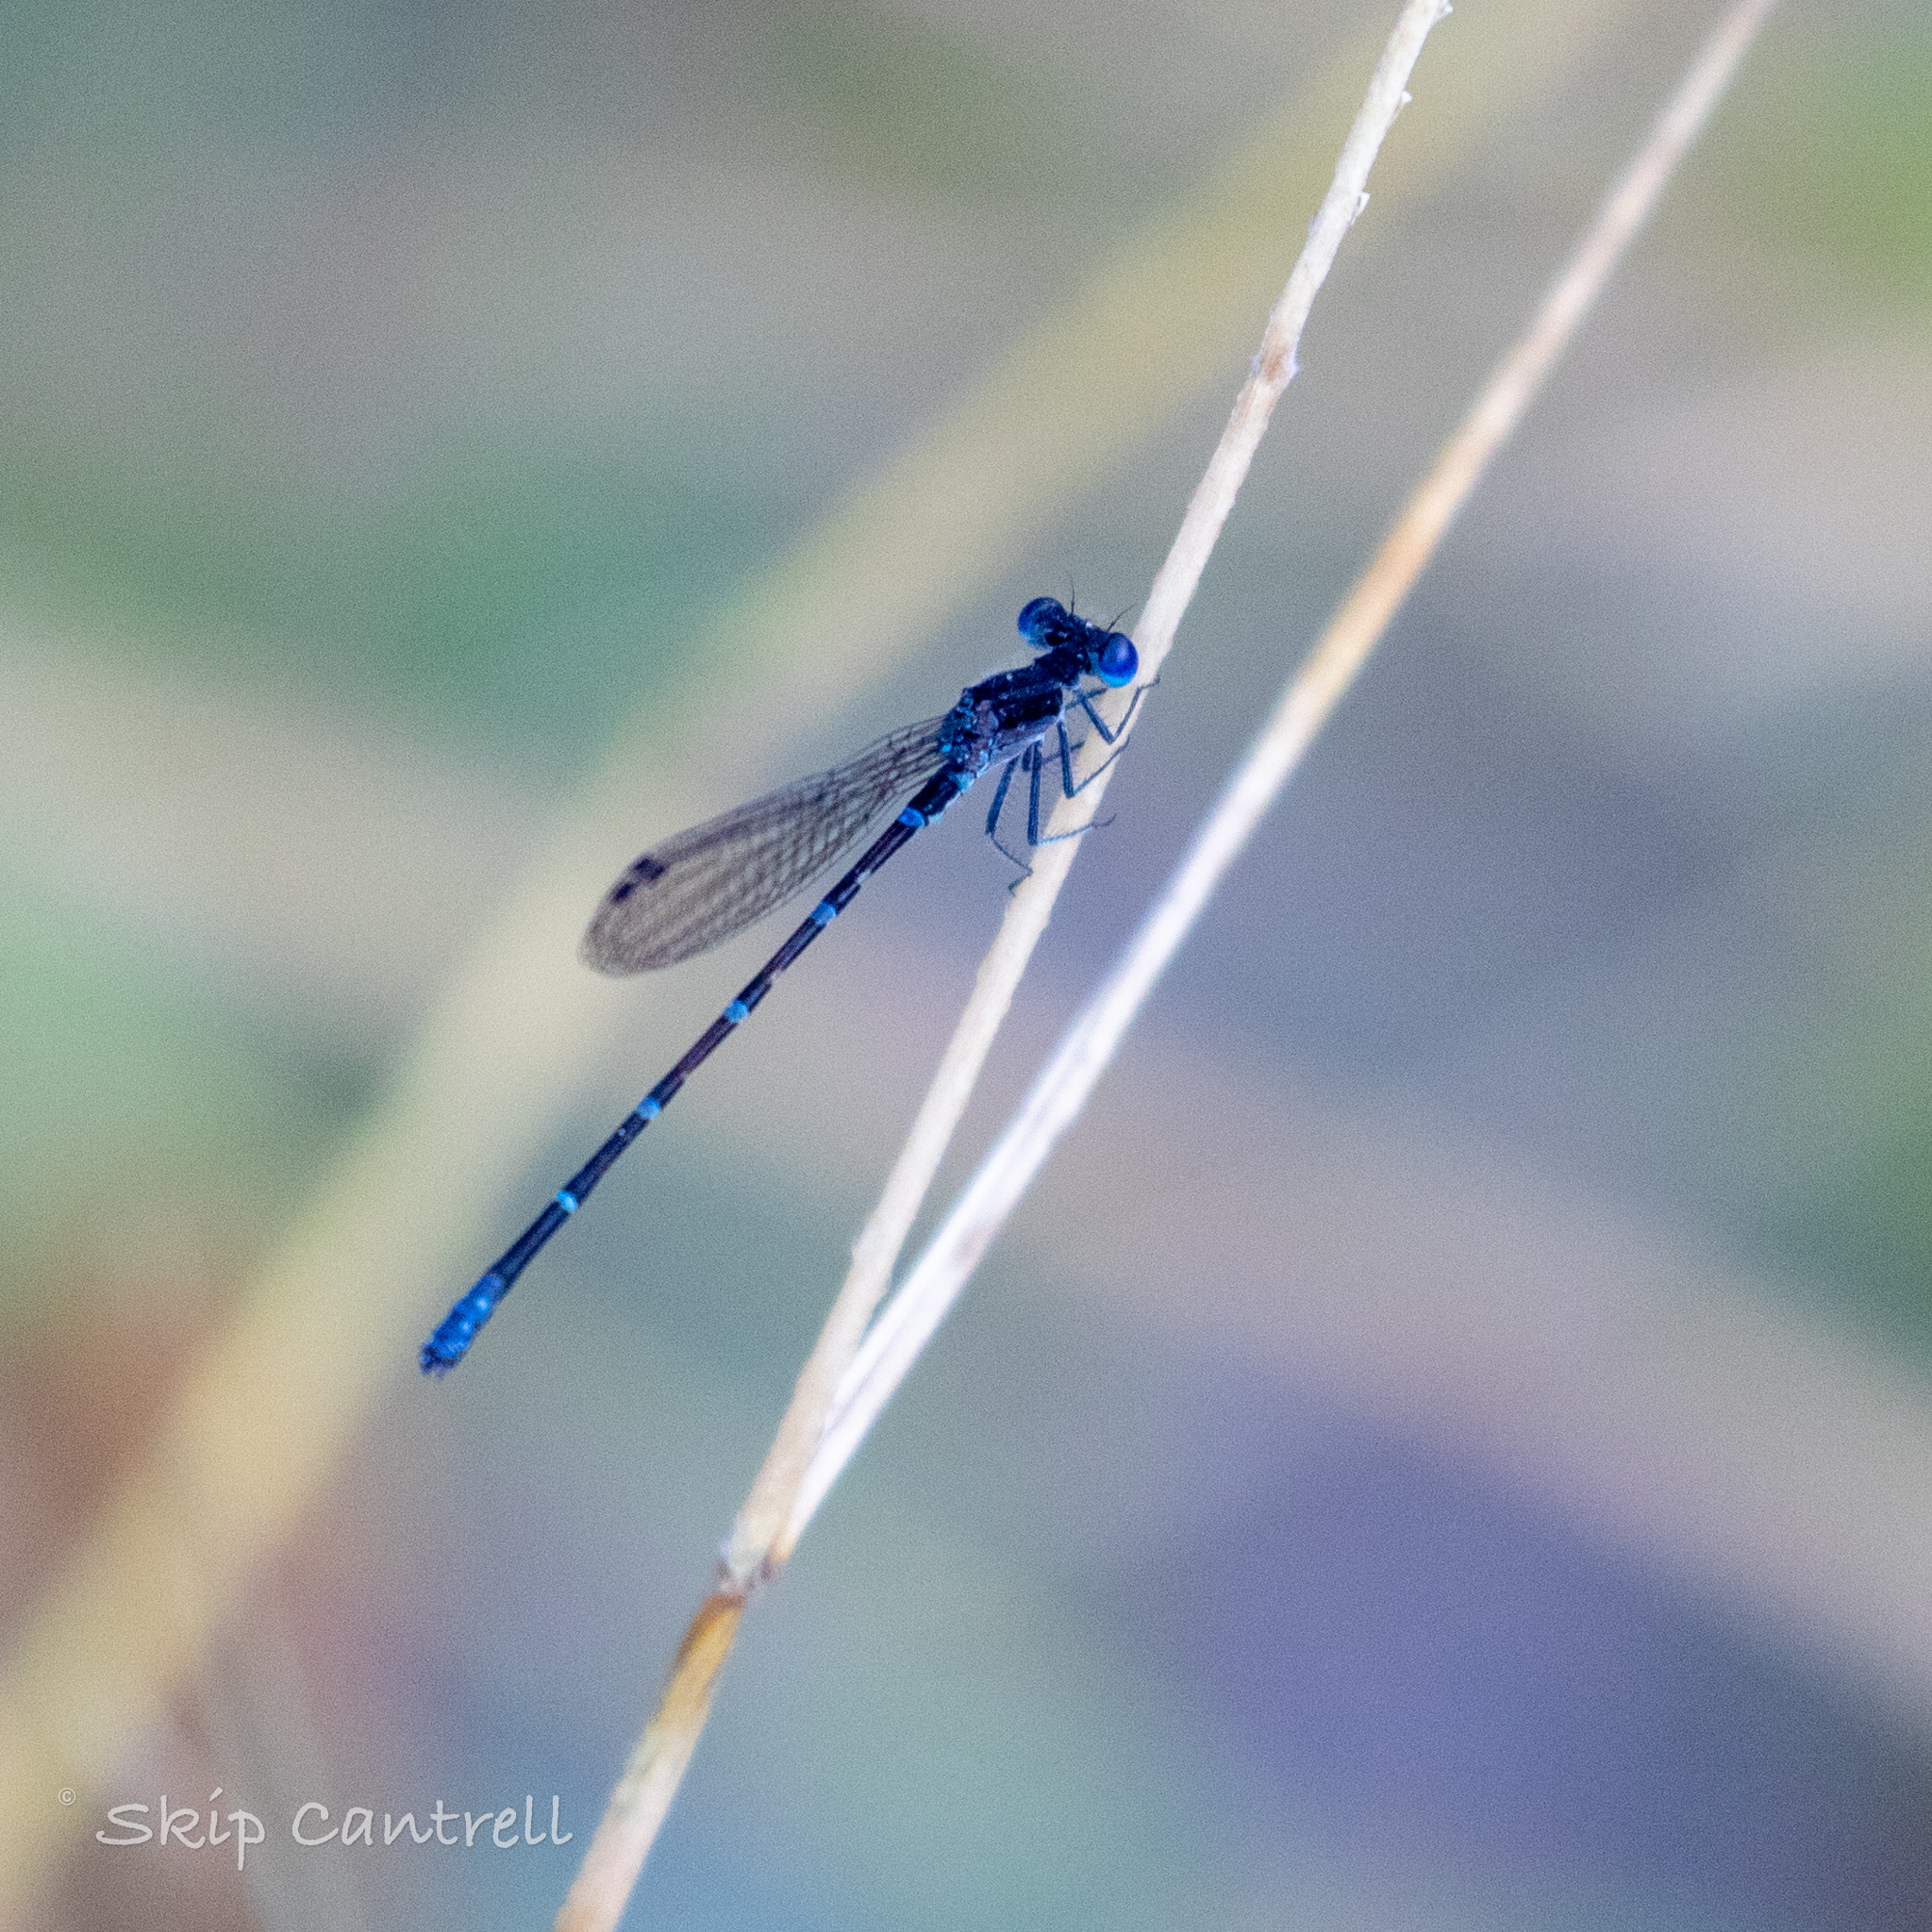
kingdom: Animalia
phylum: Arthropoda
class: Insecta
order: Odonata
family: Coenagrionidae
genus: Argia
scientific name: Argia sedula
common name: Blue-ringed dancer
